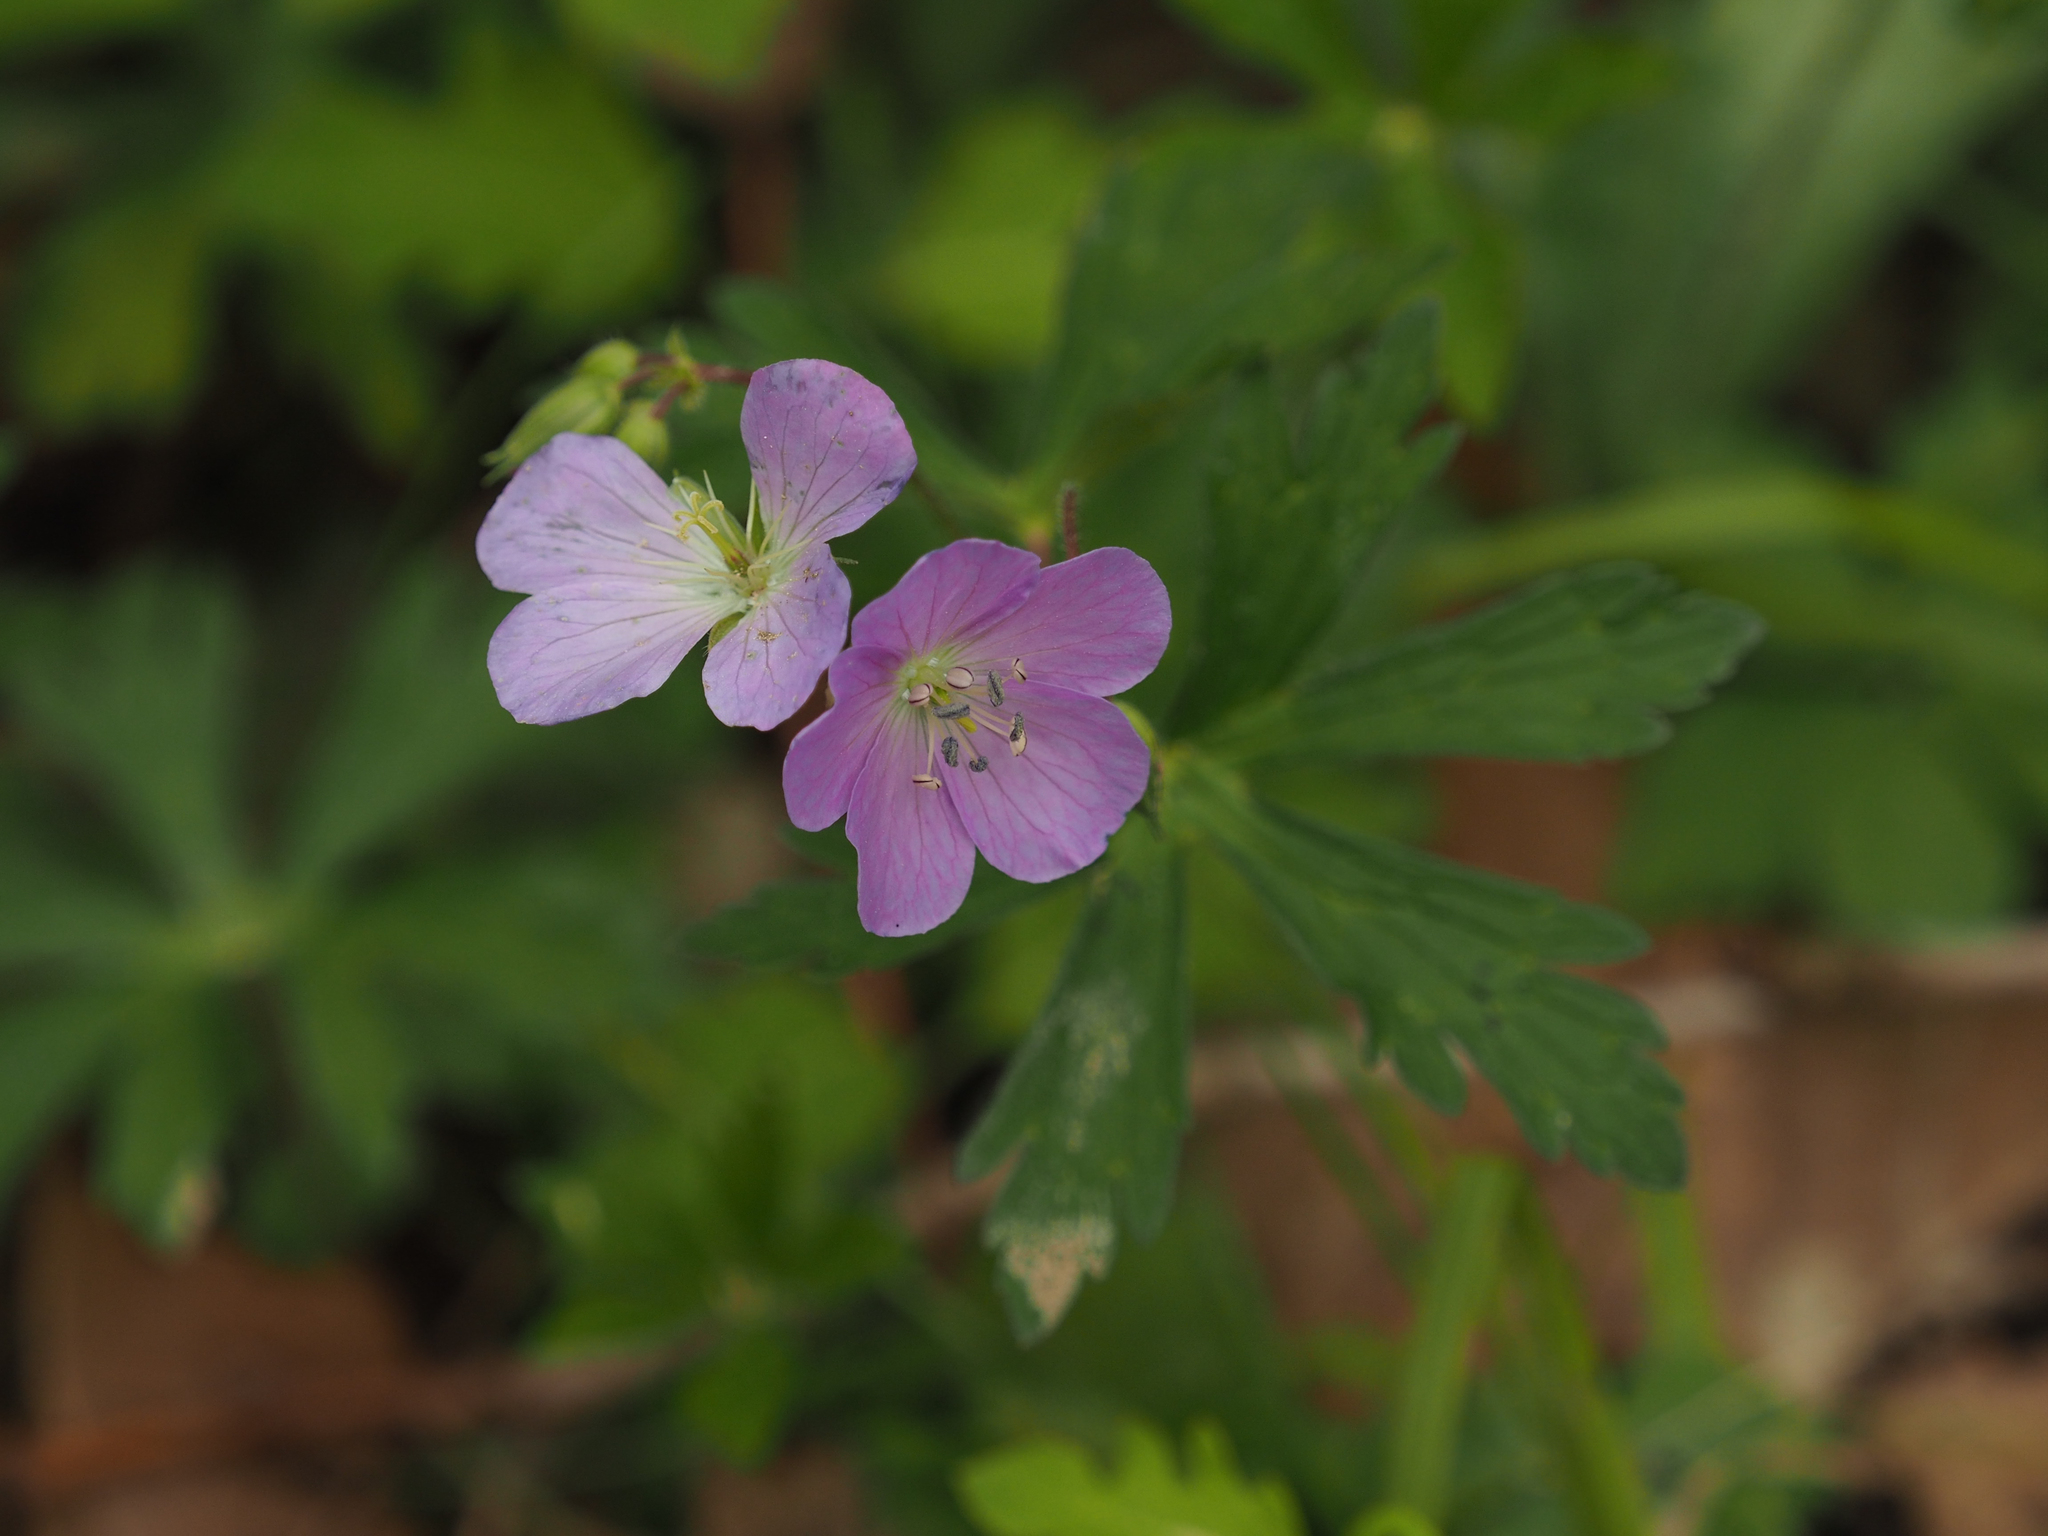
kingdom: Plantae
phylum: Tracheophyta
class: Magnoliopsida
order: Geraniales
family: Geraniaceae
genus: Geranium
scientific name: Geranium maculatum
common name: Spotted geranium
